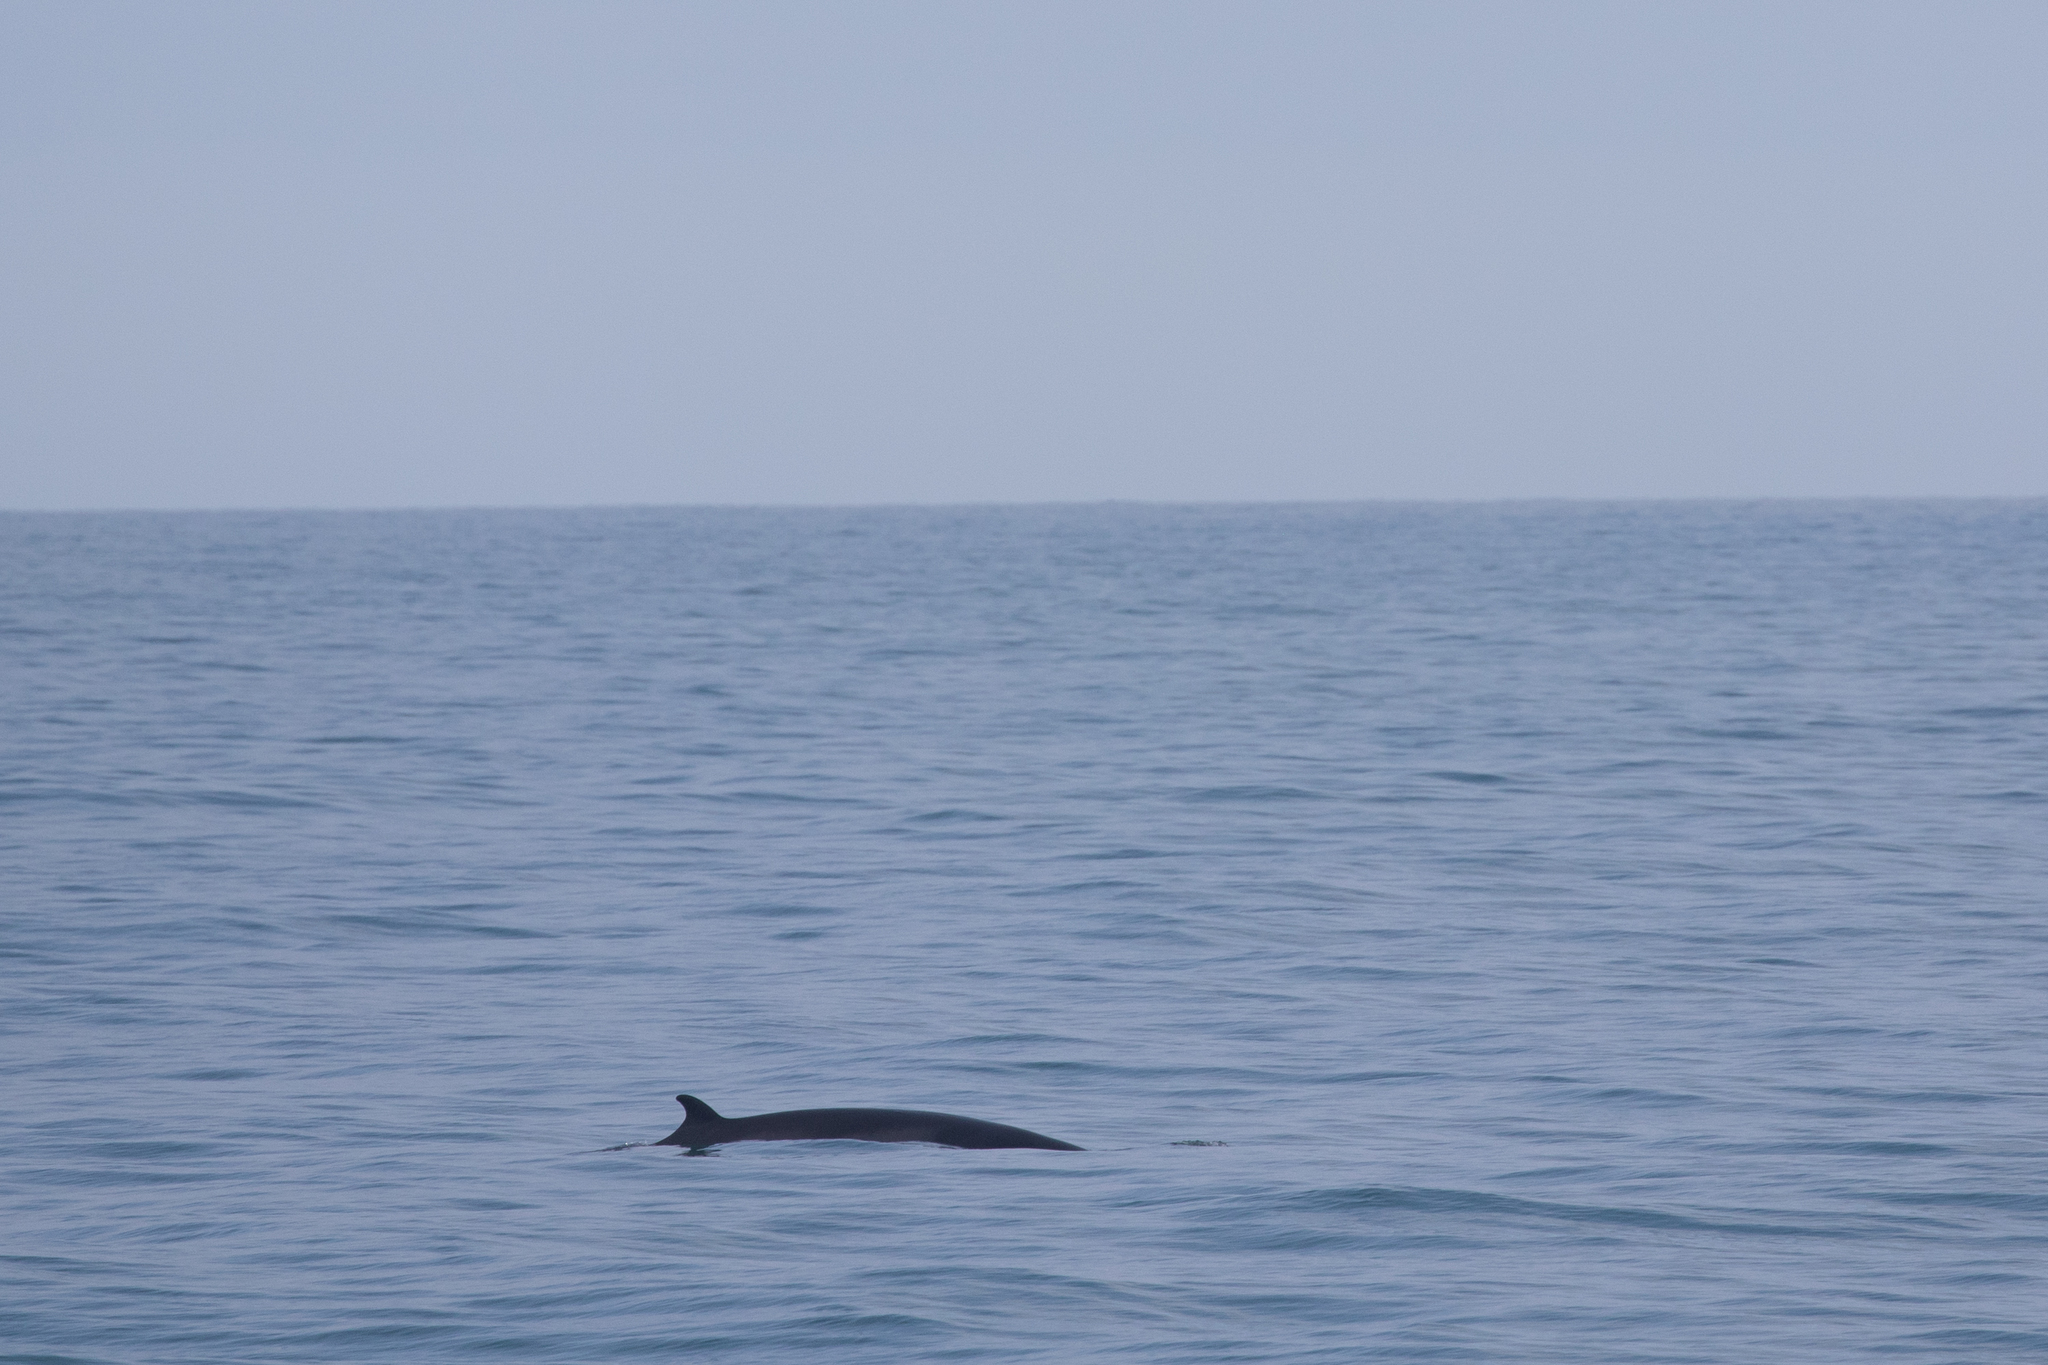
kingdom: Animalia
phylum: Chordata
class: Mammalia
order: Cetacea
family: Balaenopteridae
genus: Balaenoptera
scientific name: Balaenoptera acutorostrata
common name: Common minke whale
